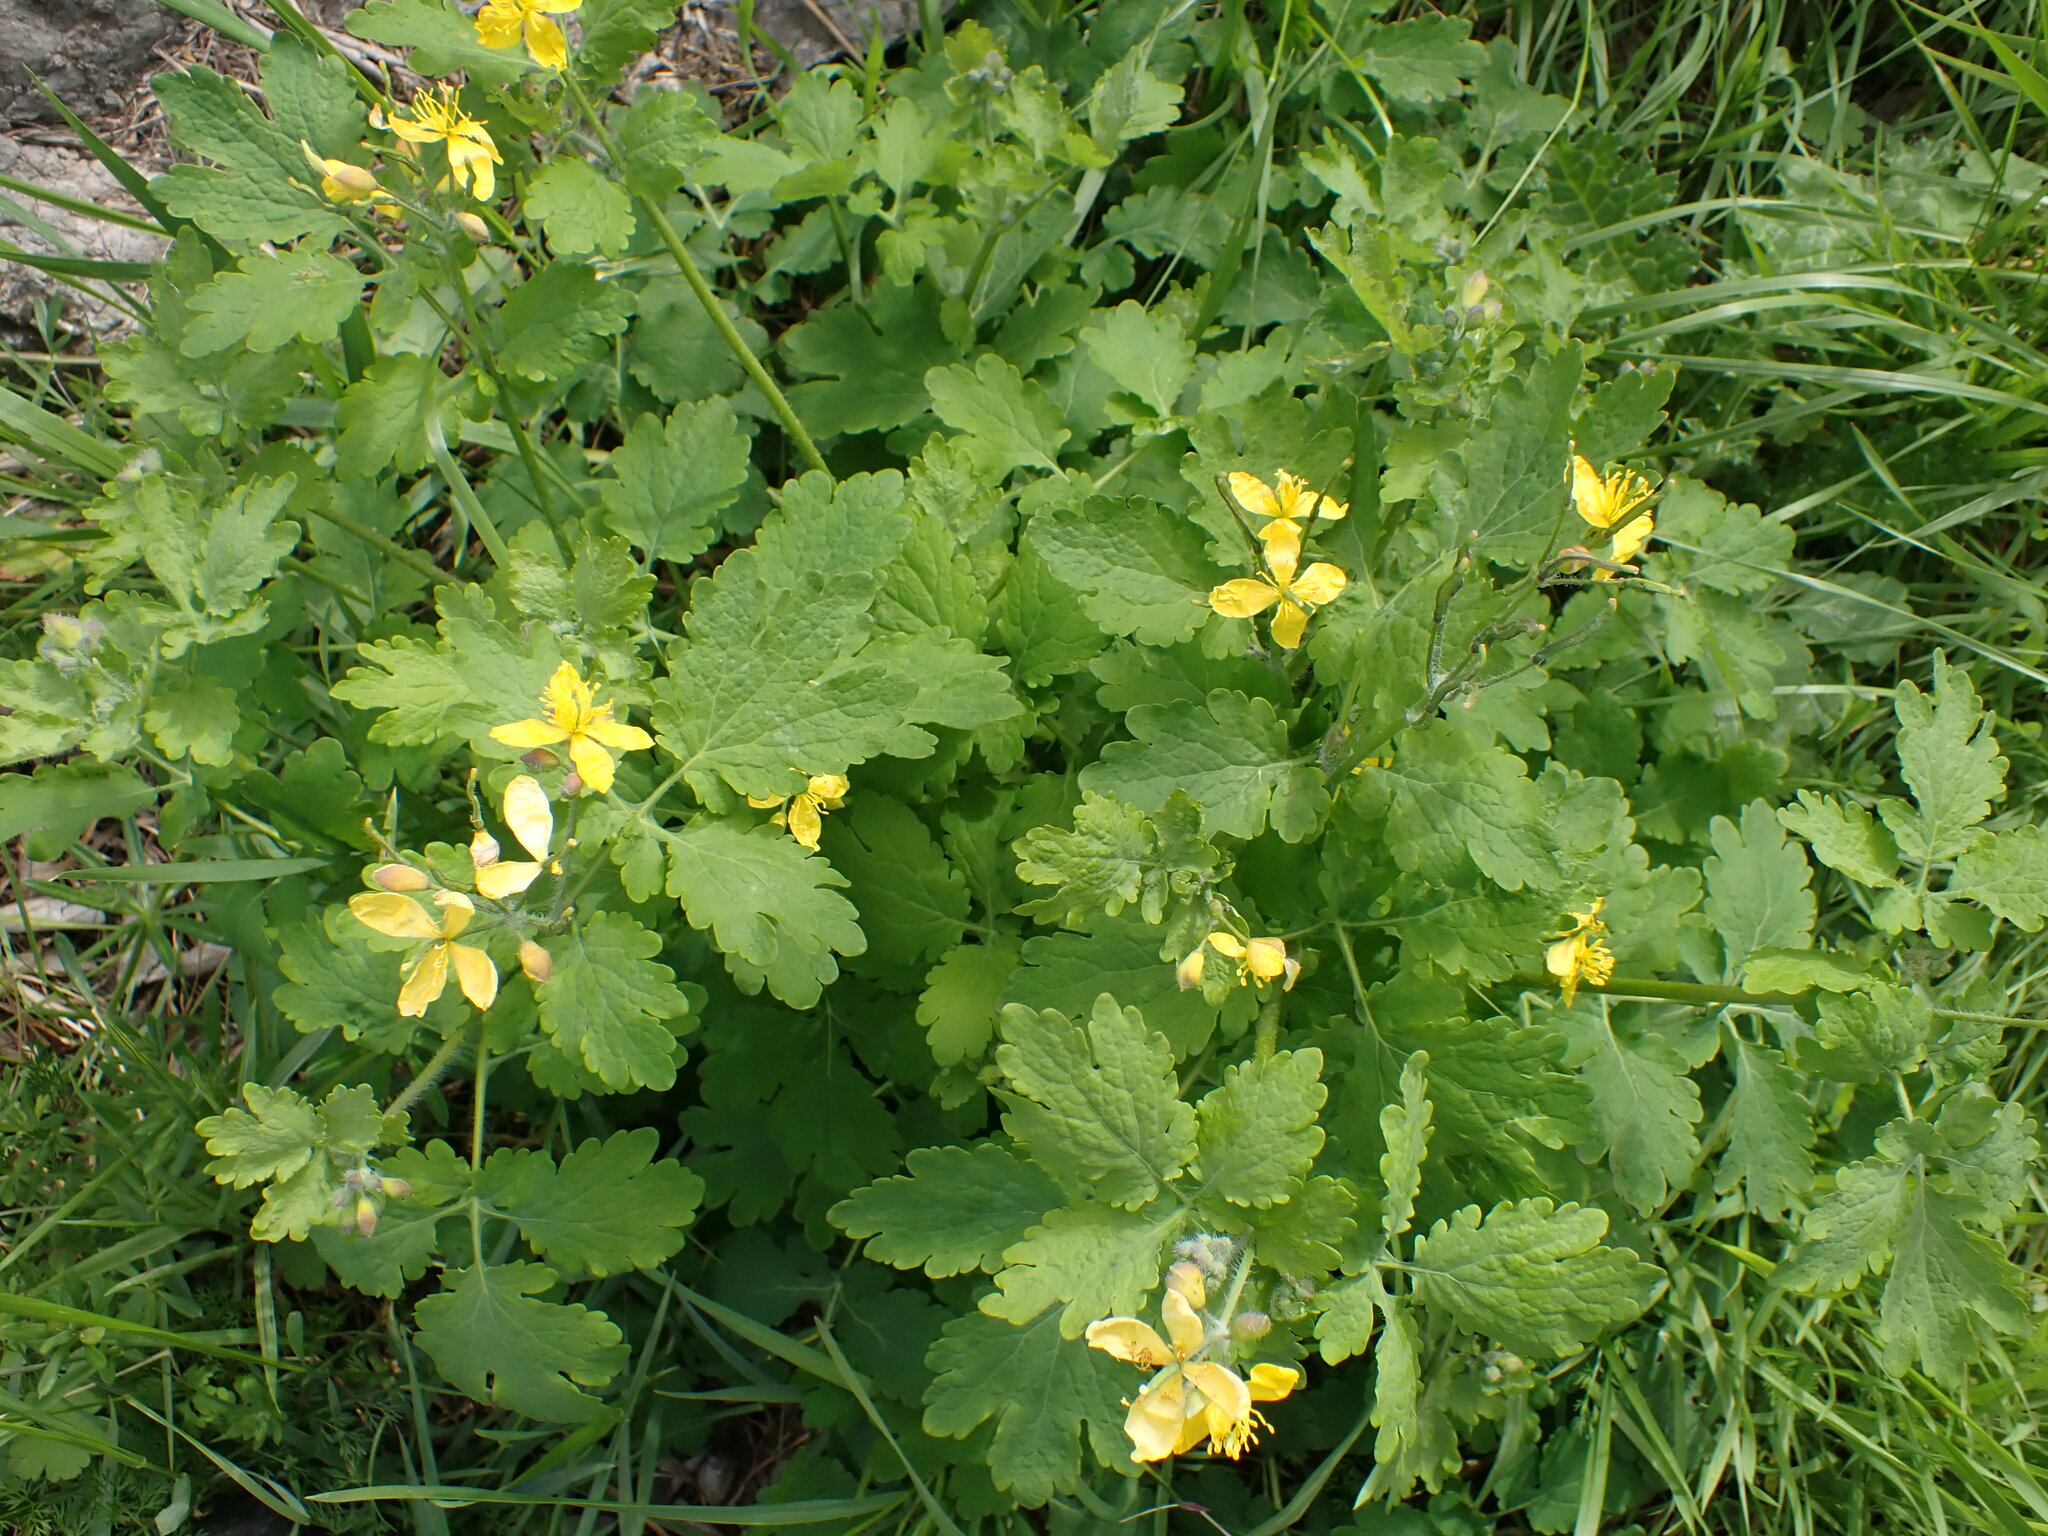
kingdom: Plantae
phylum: Tracheophyta
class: Magnoliopsida
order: Ranunculales
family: Papaveraceae
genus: Chelidonium
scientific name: Chelidonium majus
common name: Greater celandine
